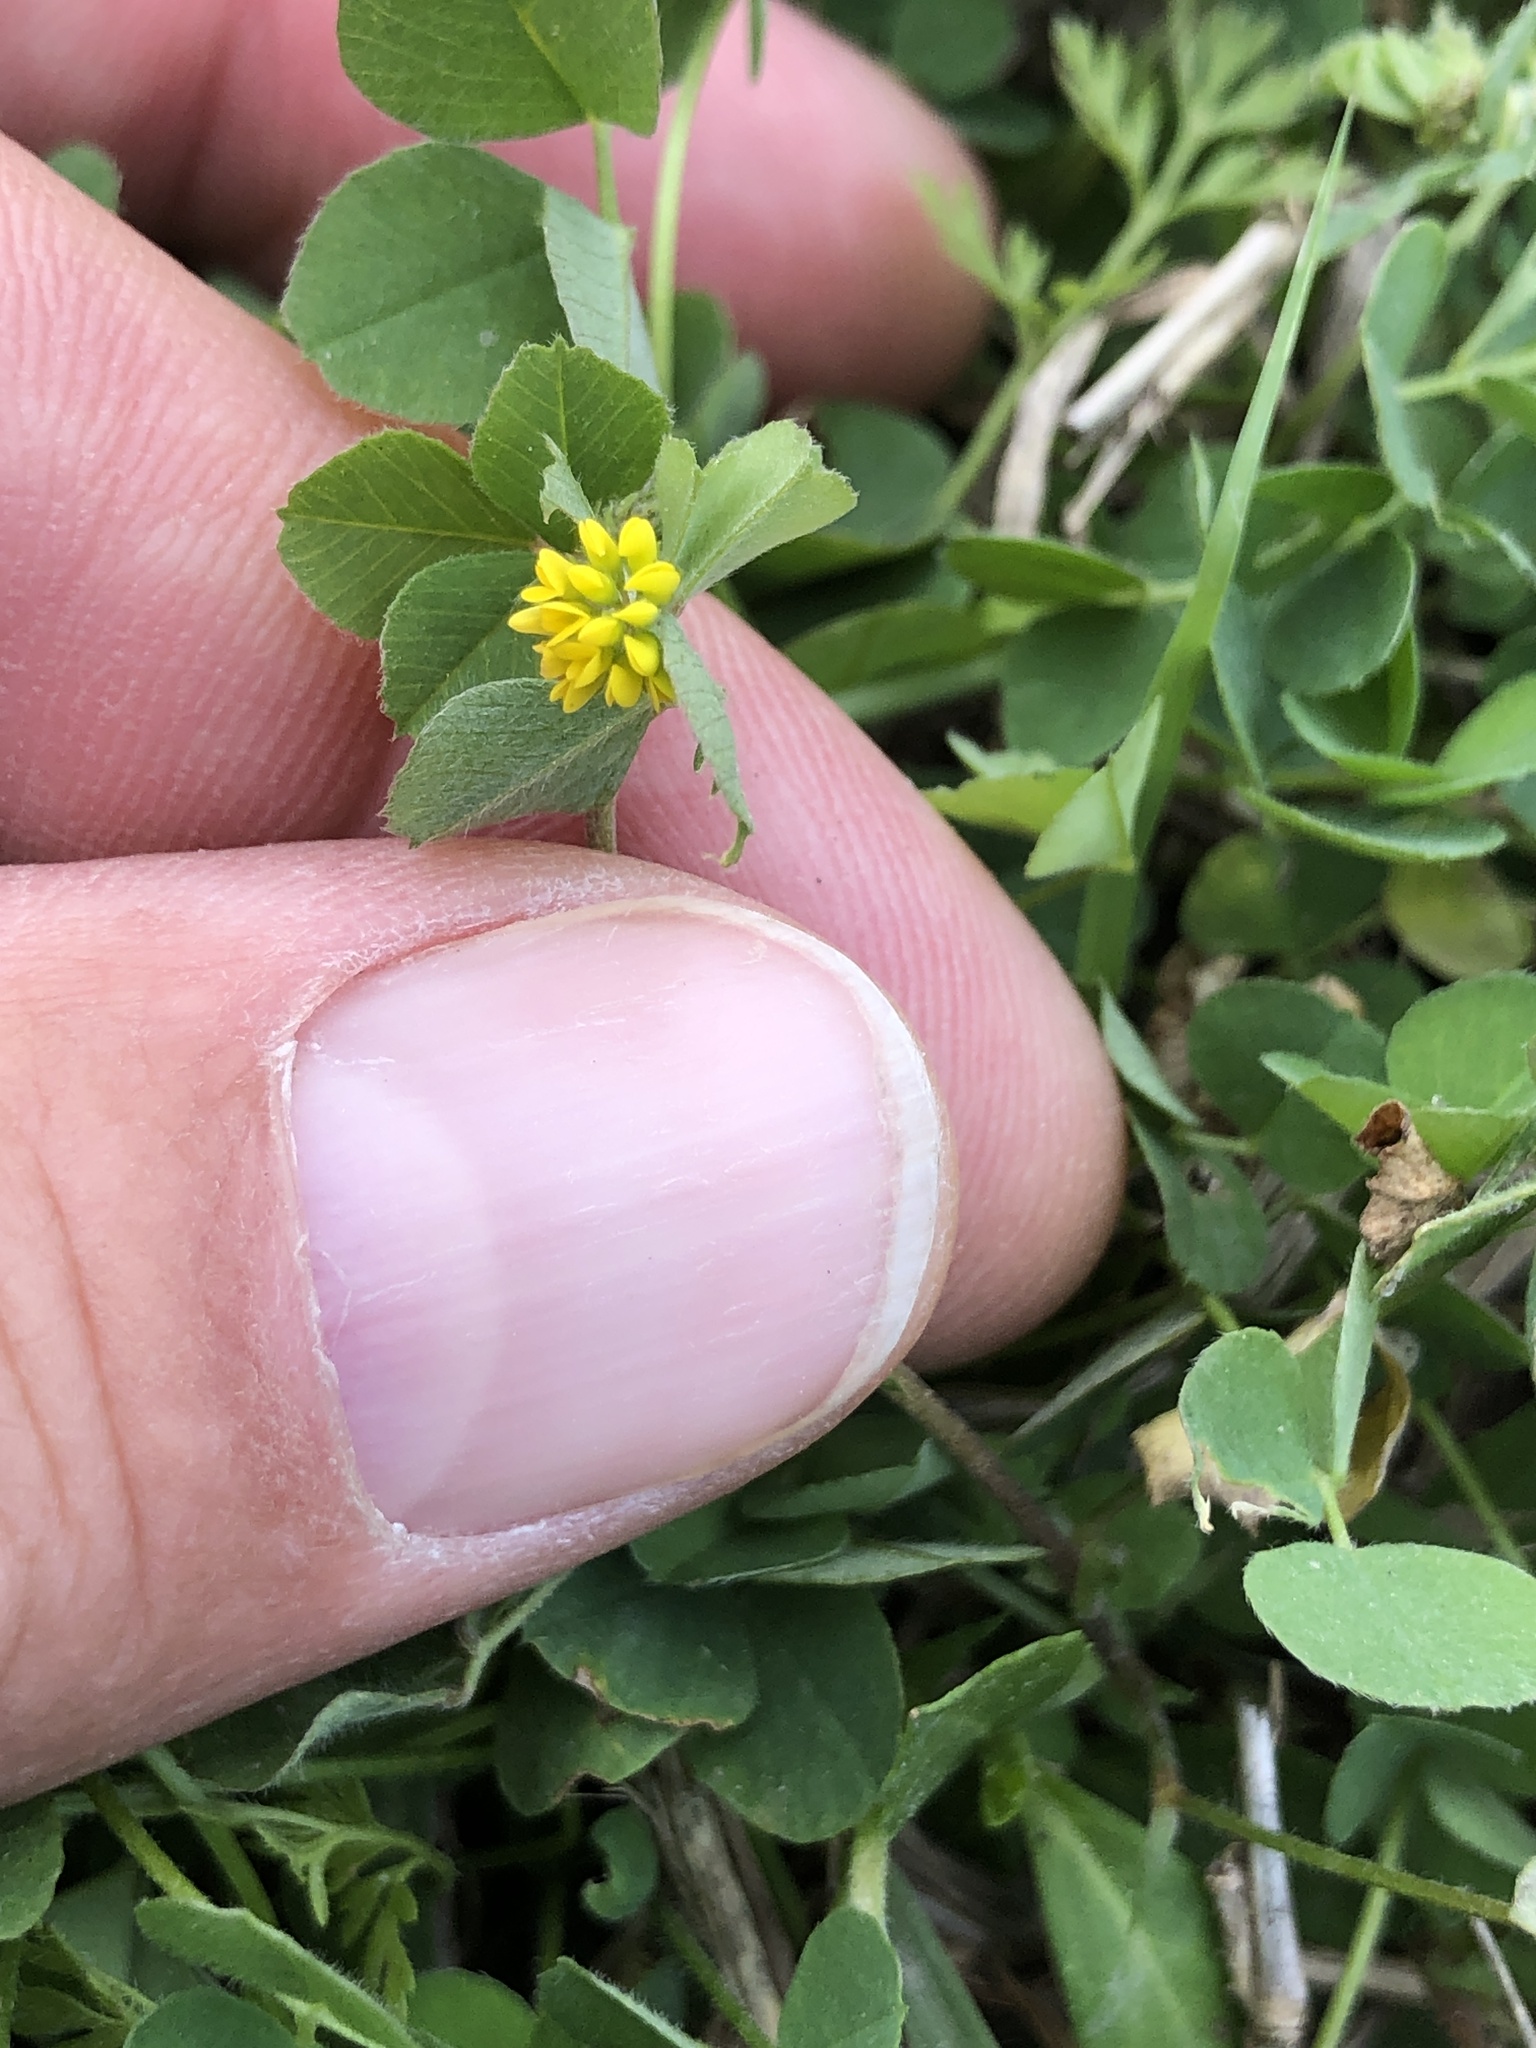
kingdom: Plantae
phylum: Tracheophyta
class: Magnoliopsida
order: Fabales
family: Fabaceae
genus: Medicago
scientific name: Medicago lupulina
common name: Black medick
